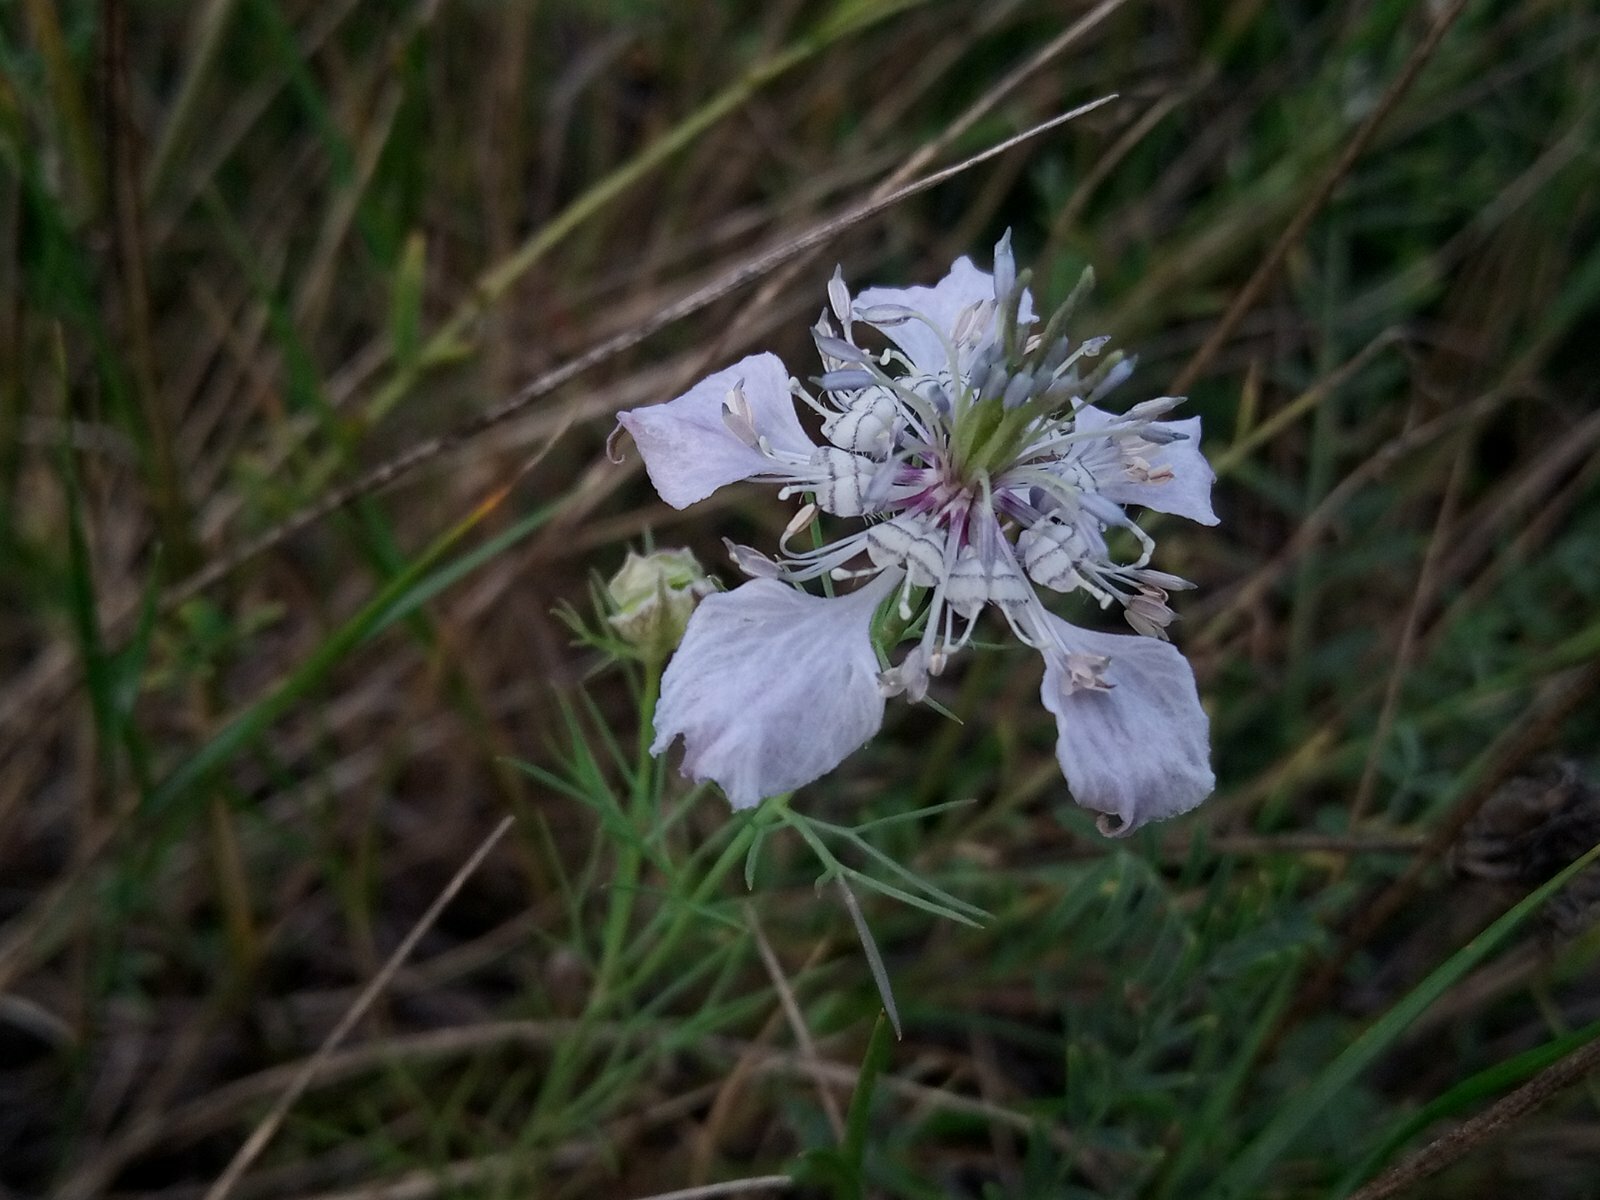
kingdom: Plantae
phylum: Tracheophyta
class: Magnoliopsida
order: Ranunculales
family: Ranunculaceae
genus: Nigella
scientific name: Nigella arvensis
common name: Wild fennel-flower
